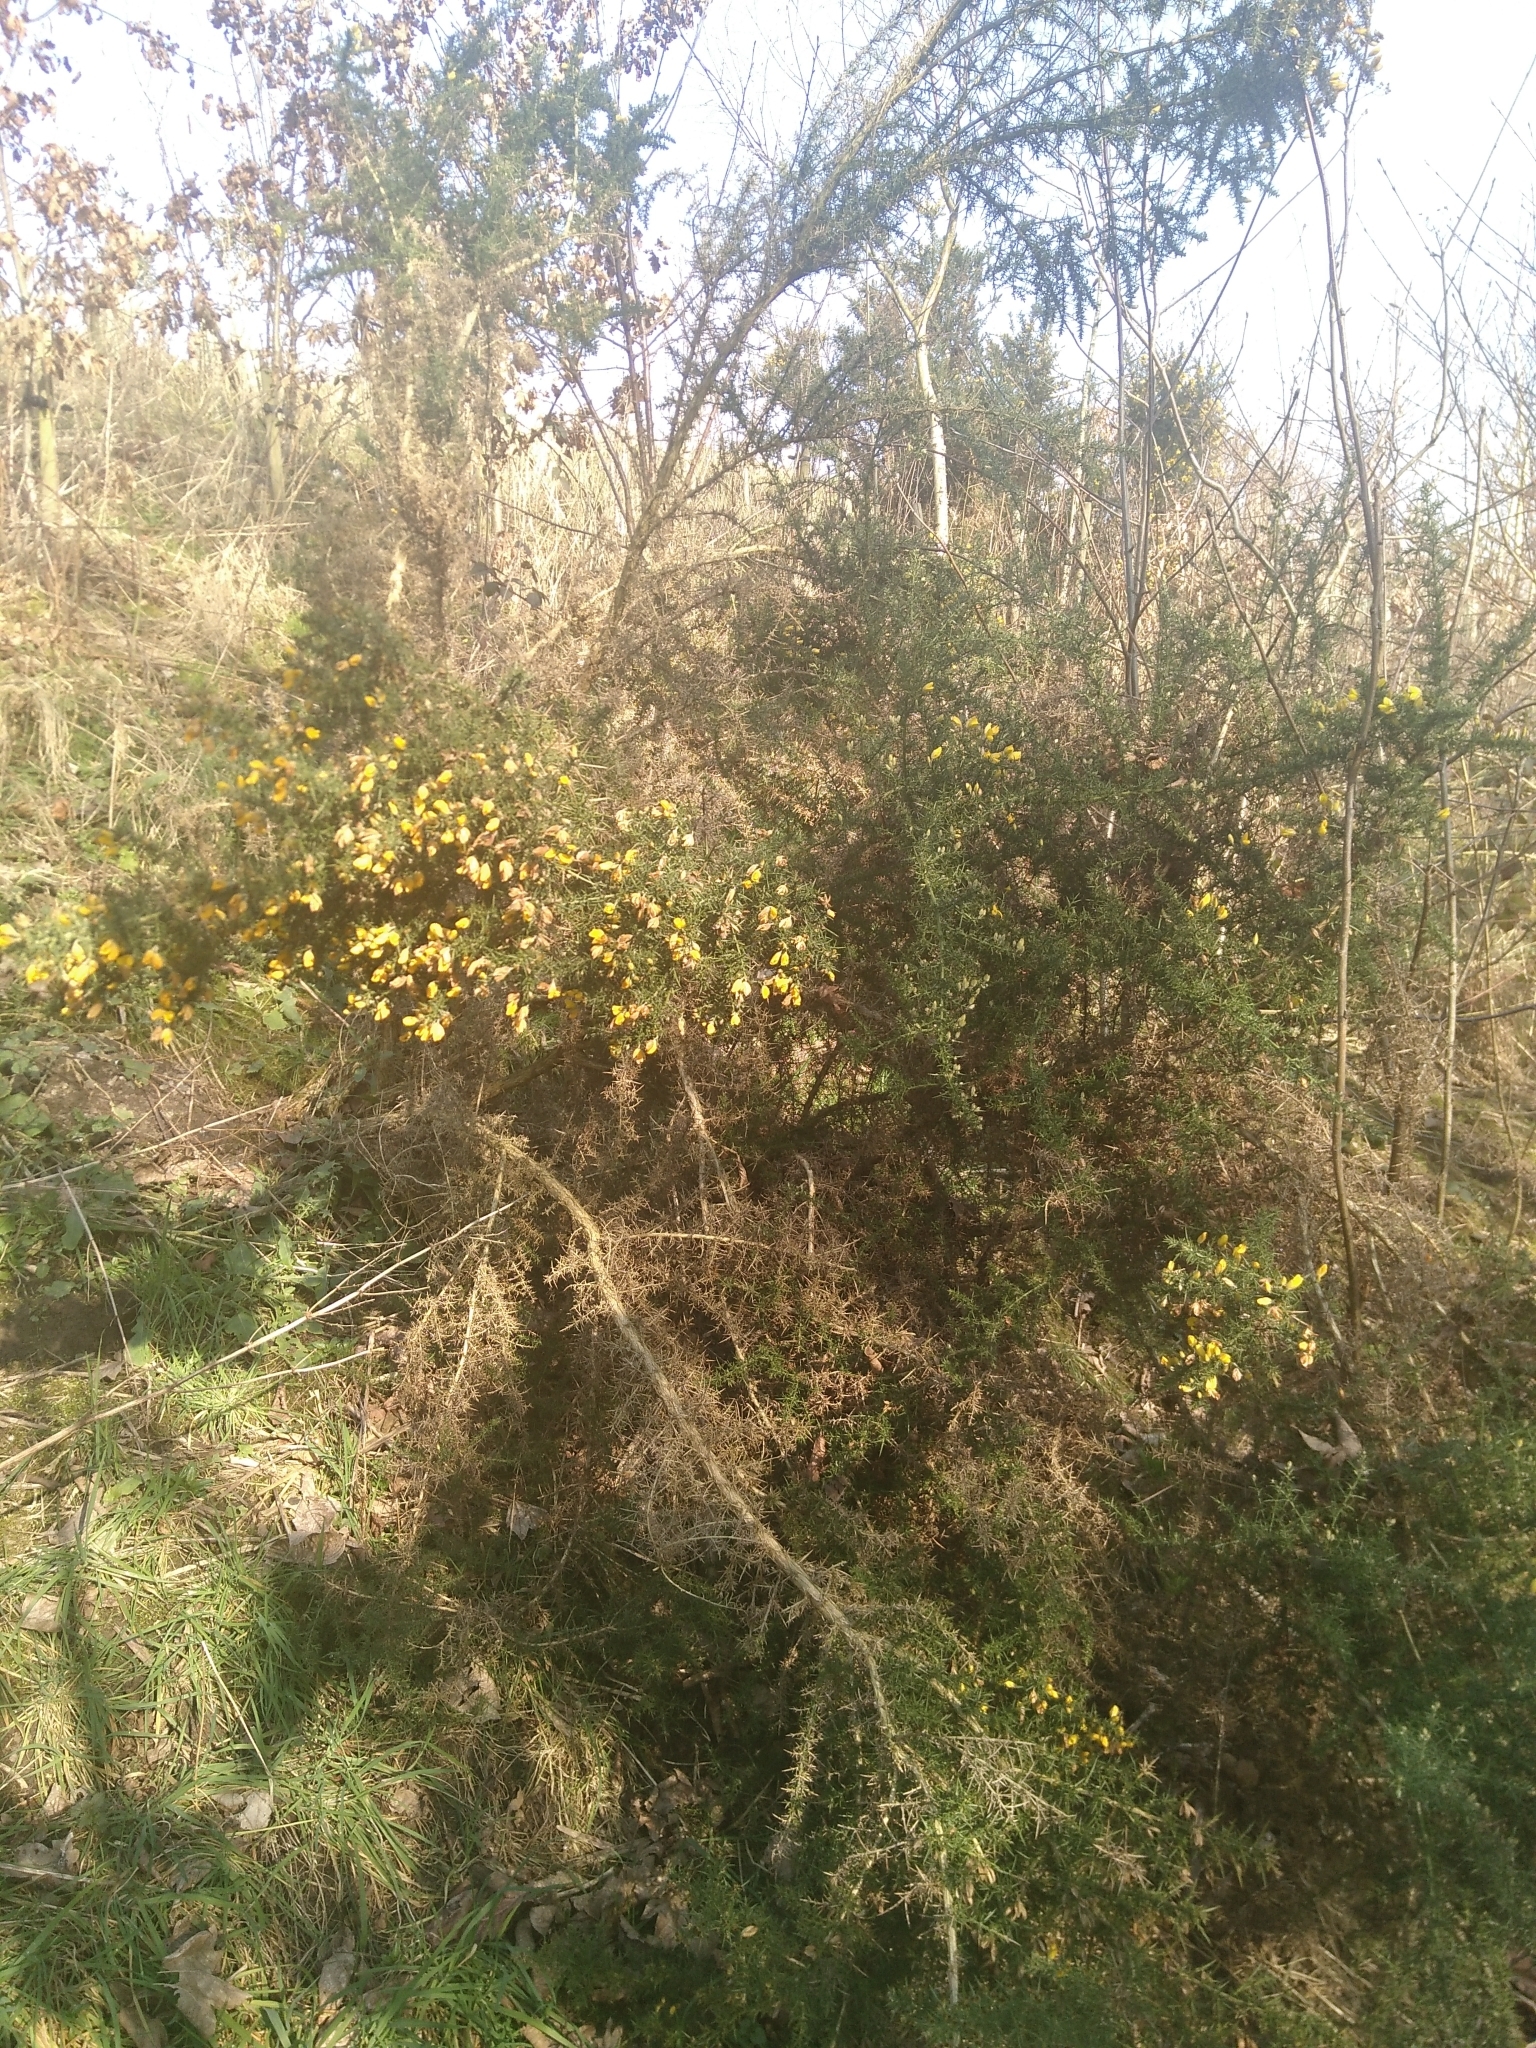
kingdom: Plantae
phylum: Tracheophyta
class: Magnoliopsida
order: Fabales
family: Fabaceae
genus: Ulex
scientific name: Ulex europaeus
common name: Common gorse
